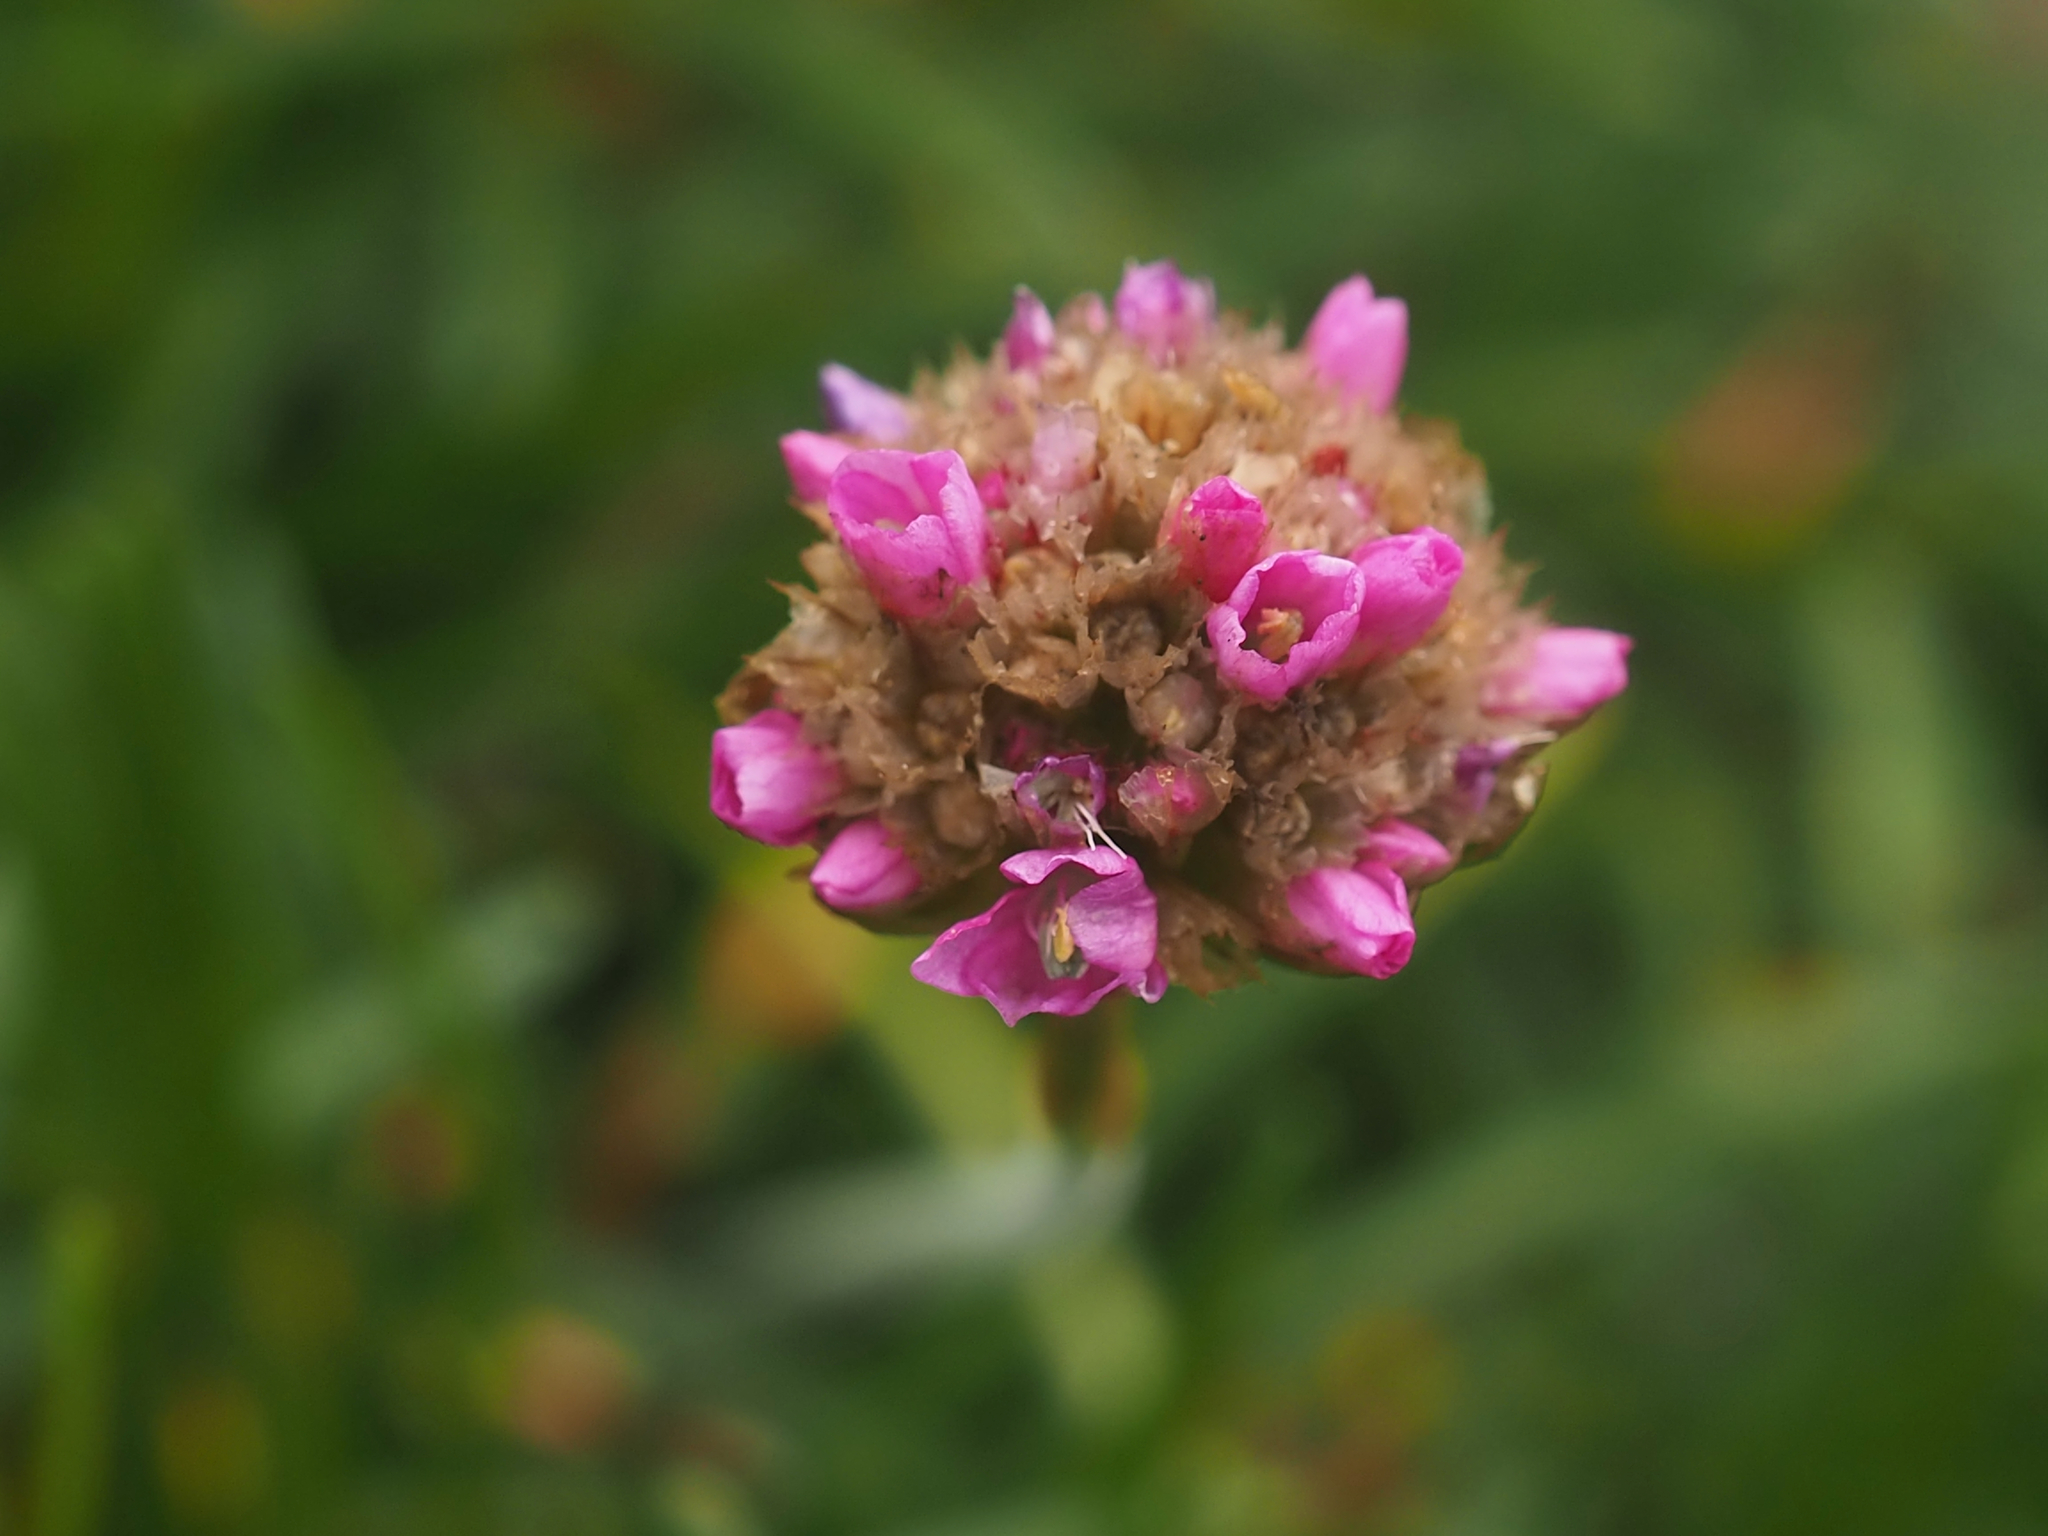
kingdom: Plantae
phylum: Tracheophyta
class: Magnoliopsida
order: Caryophyllales
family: Plumbaginaceae
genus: Armeria
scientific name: Armeria maritima
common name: Thrift
